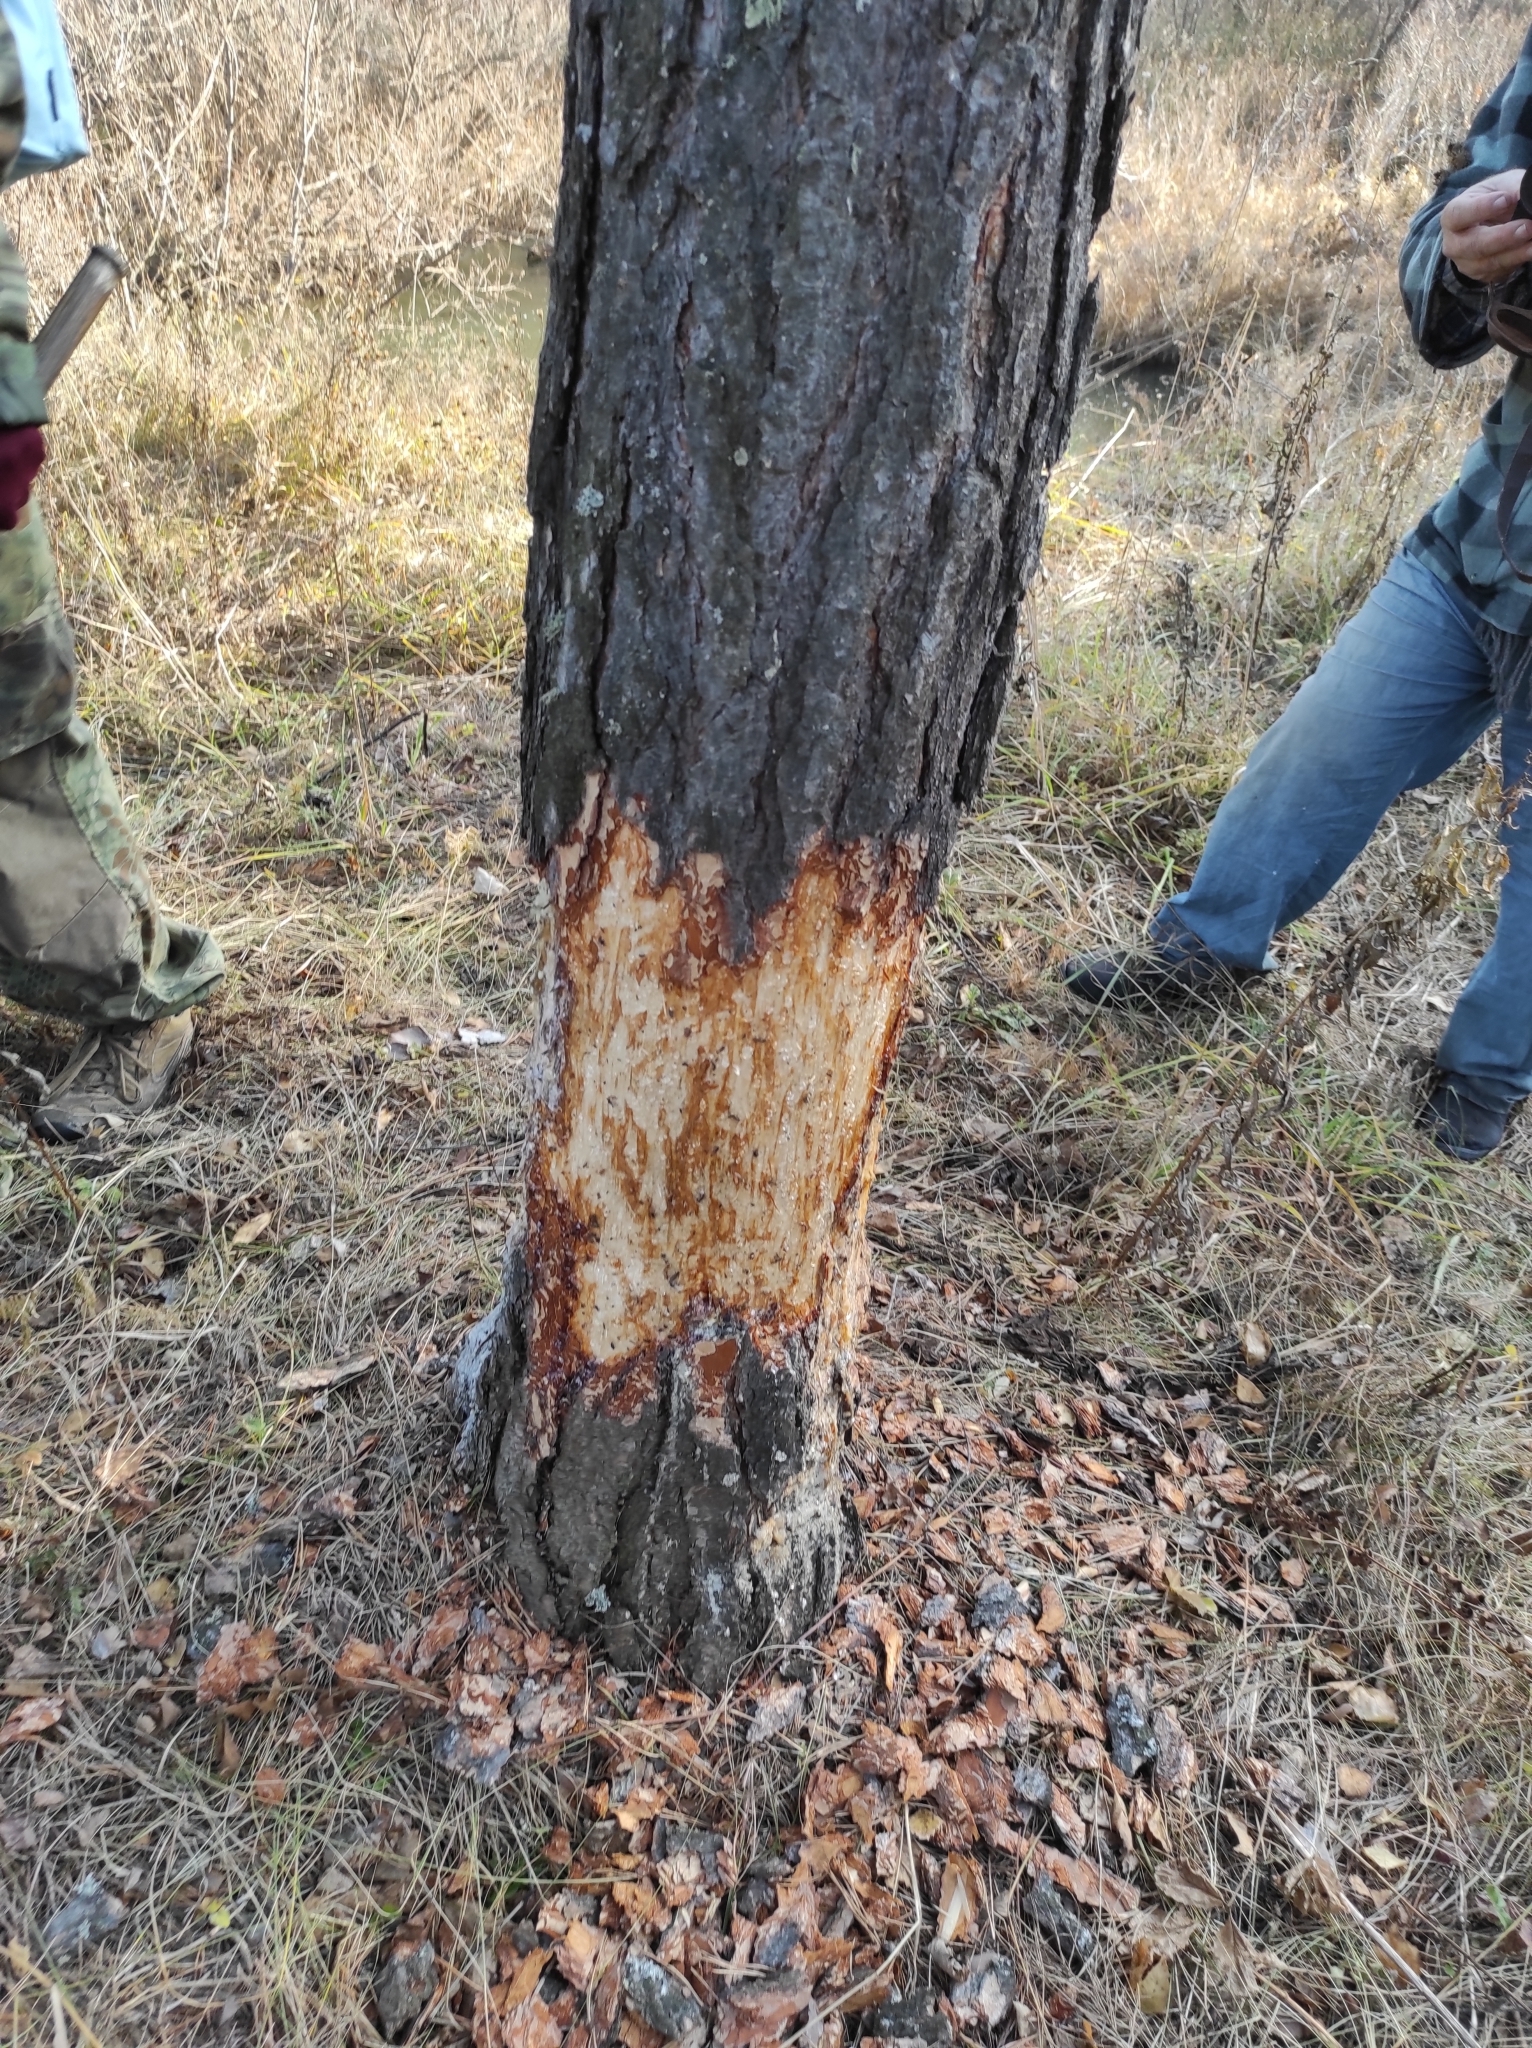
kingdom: Animalia
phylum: Chordata
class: Mammalia
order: Rodentia
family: Castoridae
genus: Castor
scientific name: Castor fiber
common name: Eurasian beaver
